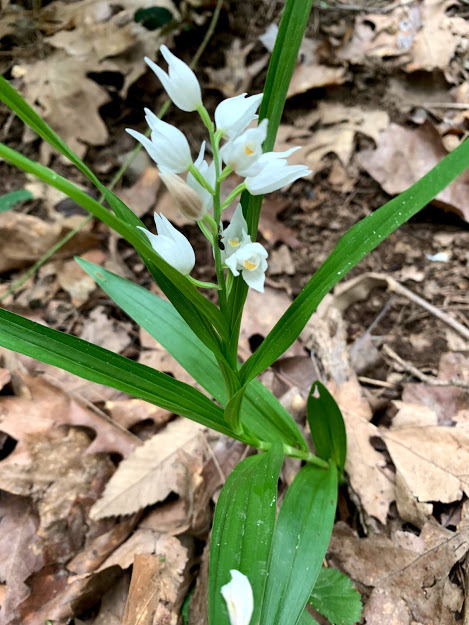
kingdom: Plantae
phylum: Tracheophyta
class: Liliopsida
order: Asparagales
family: Orchidaceae
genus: Cephalanthera
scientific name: Cephalanthera longifolia
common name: Narrow-leaved helleborine
